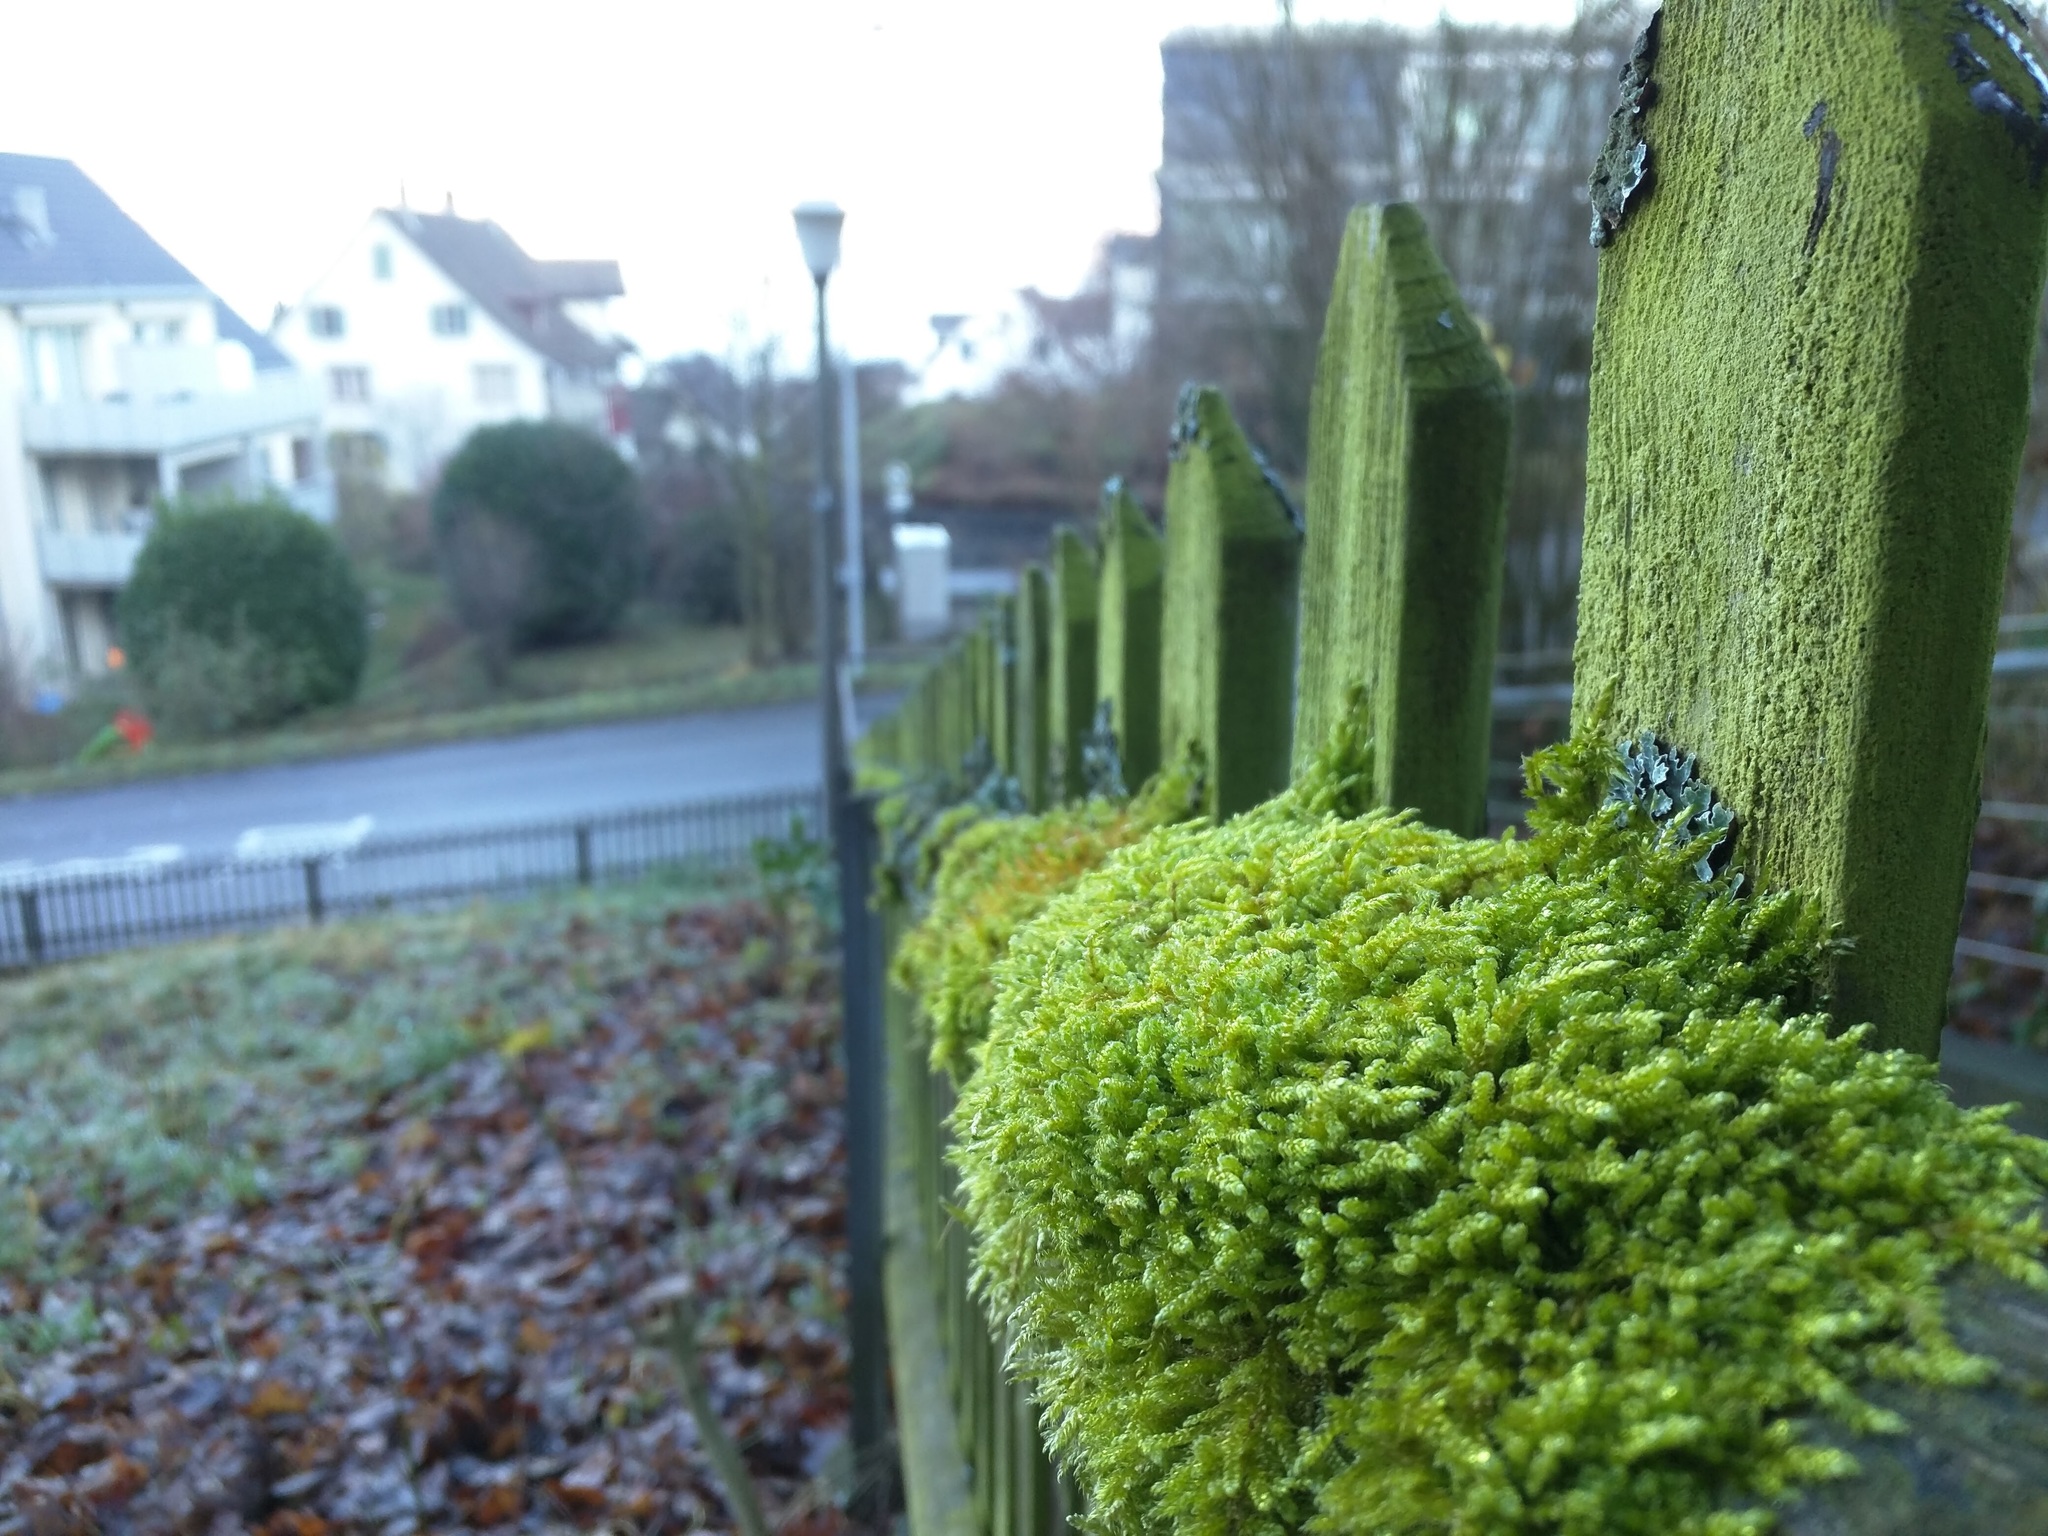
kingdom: Plantae
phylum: Bryophyta
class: Bryopsida
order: Hypnales
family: Hypnaceae
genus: Hypnum
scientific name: Hypnum cupressiforme
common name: Cypress-leaved plait-moss
